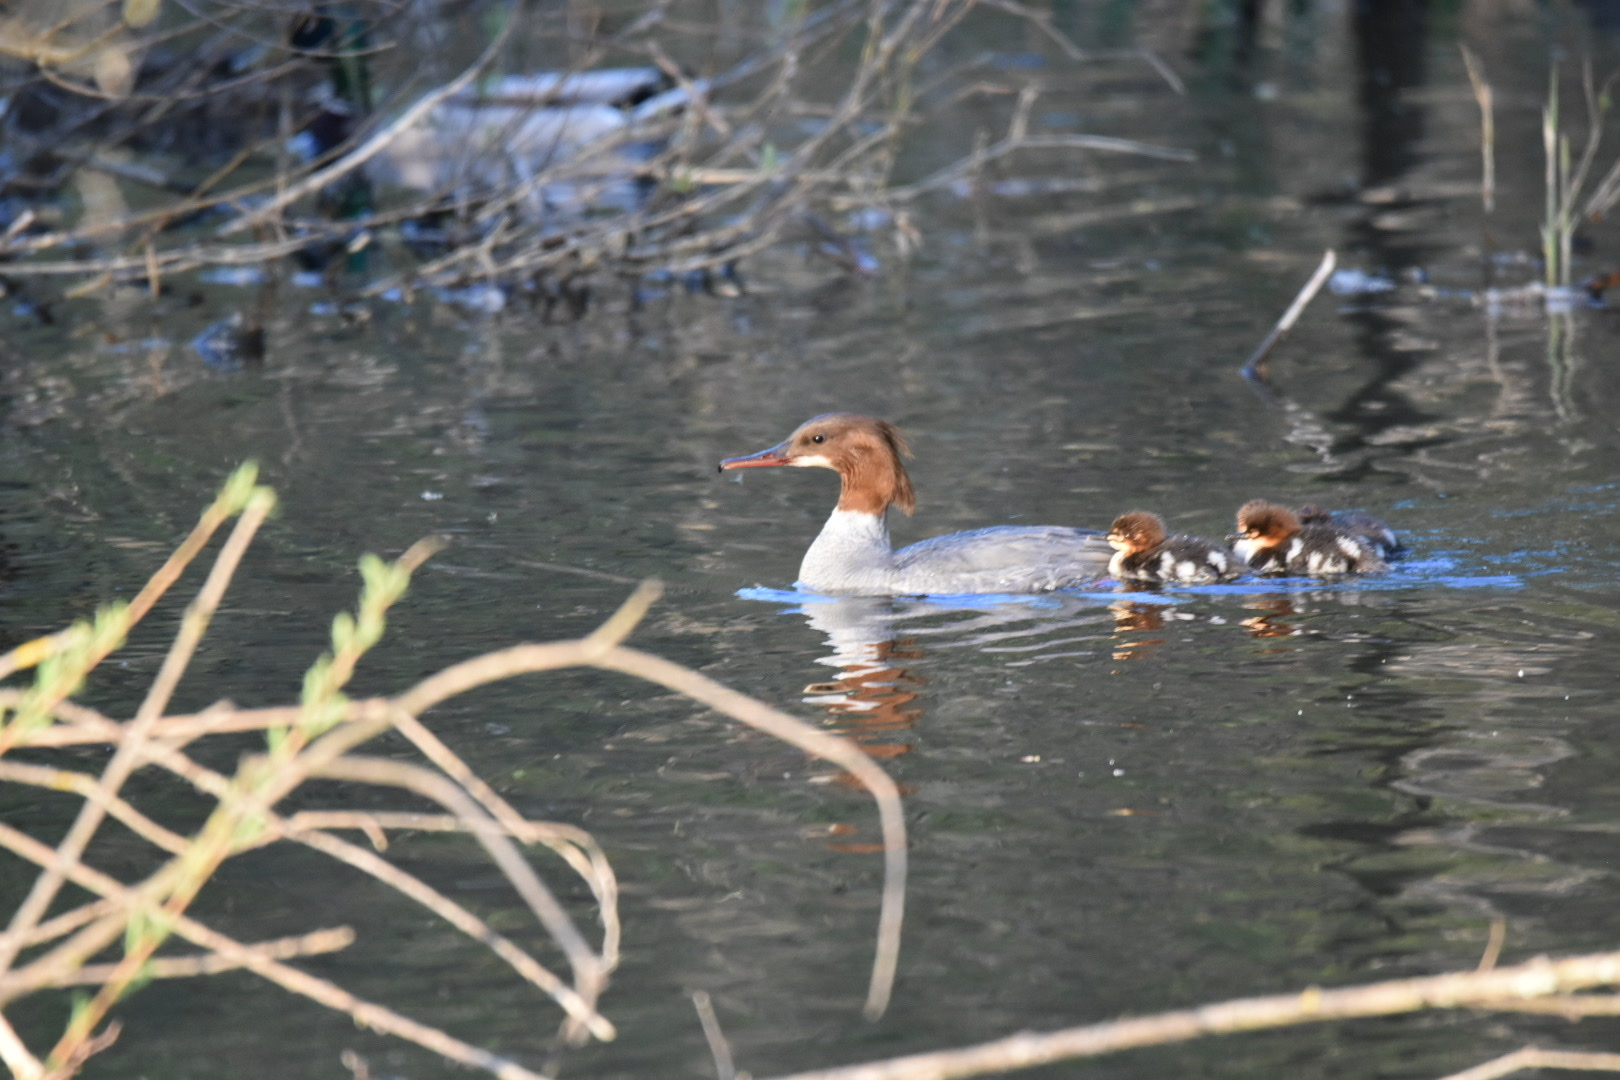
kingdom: Animalia
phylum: Chordata
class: Aves
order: Anseriformes
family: Anatidae
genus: Mergus
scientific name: Mergus merganser
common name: Common merganser
